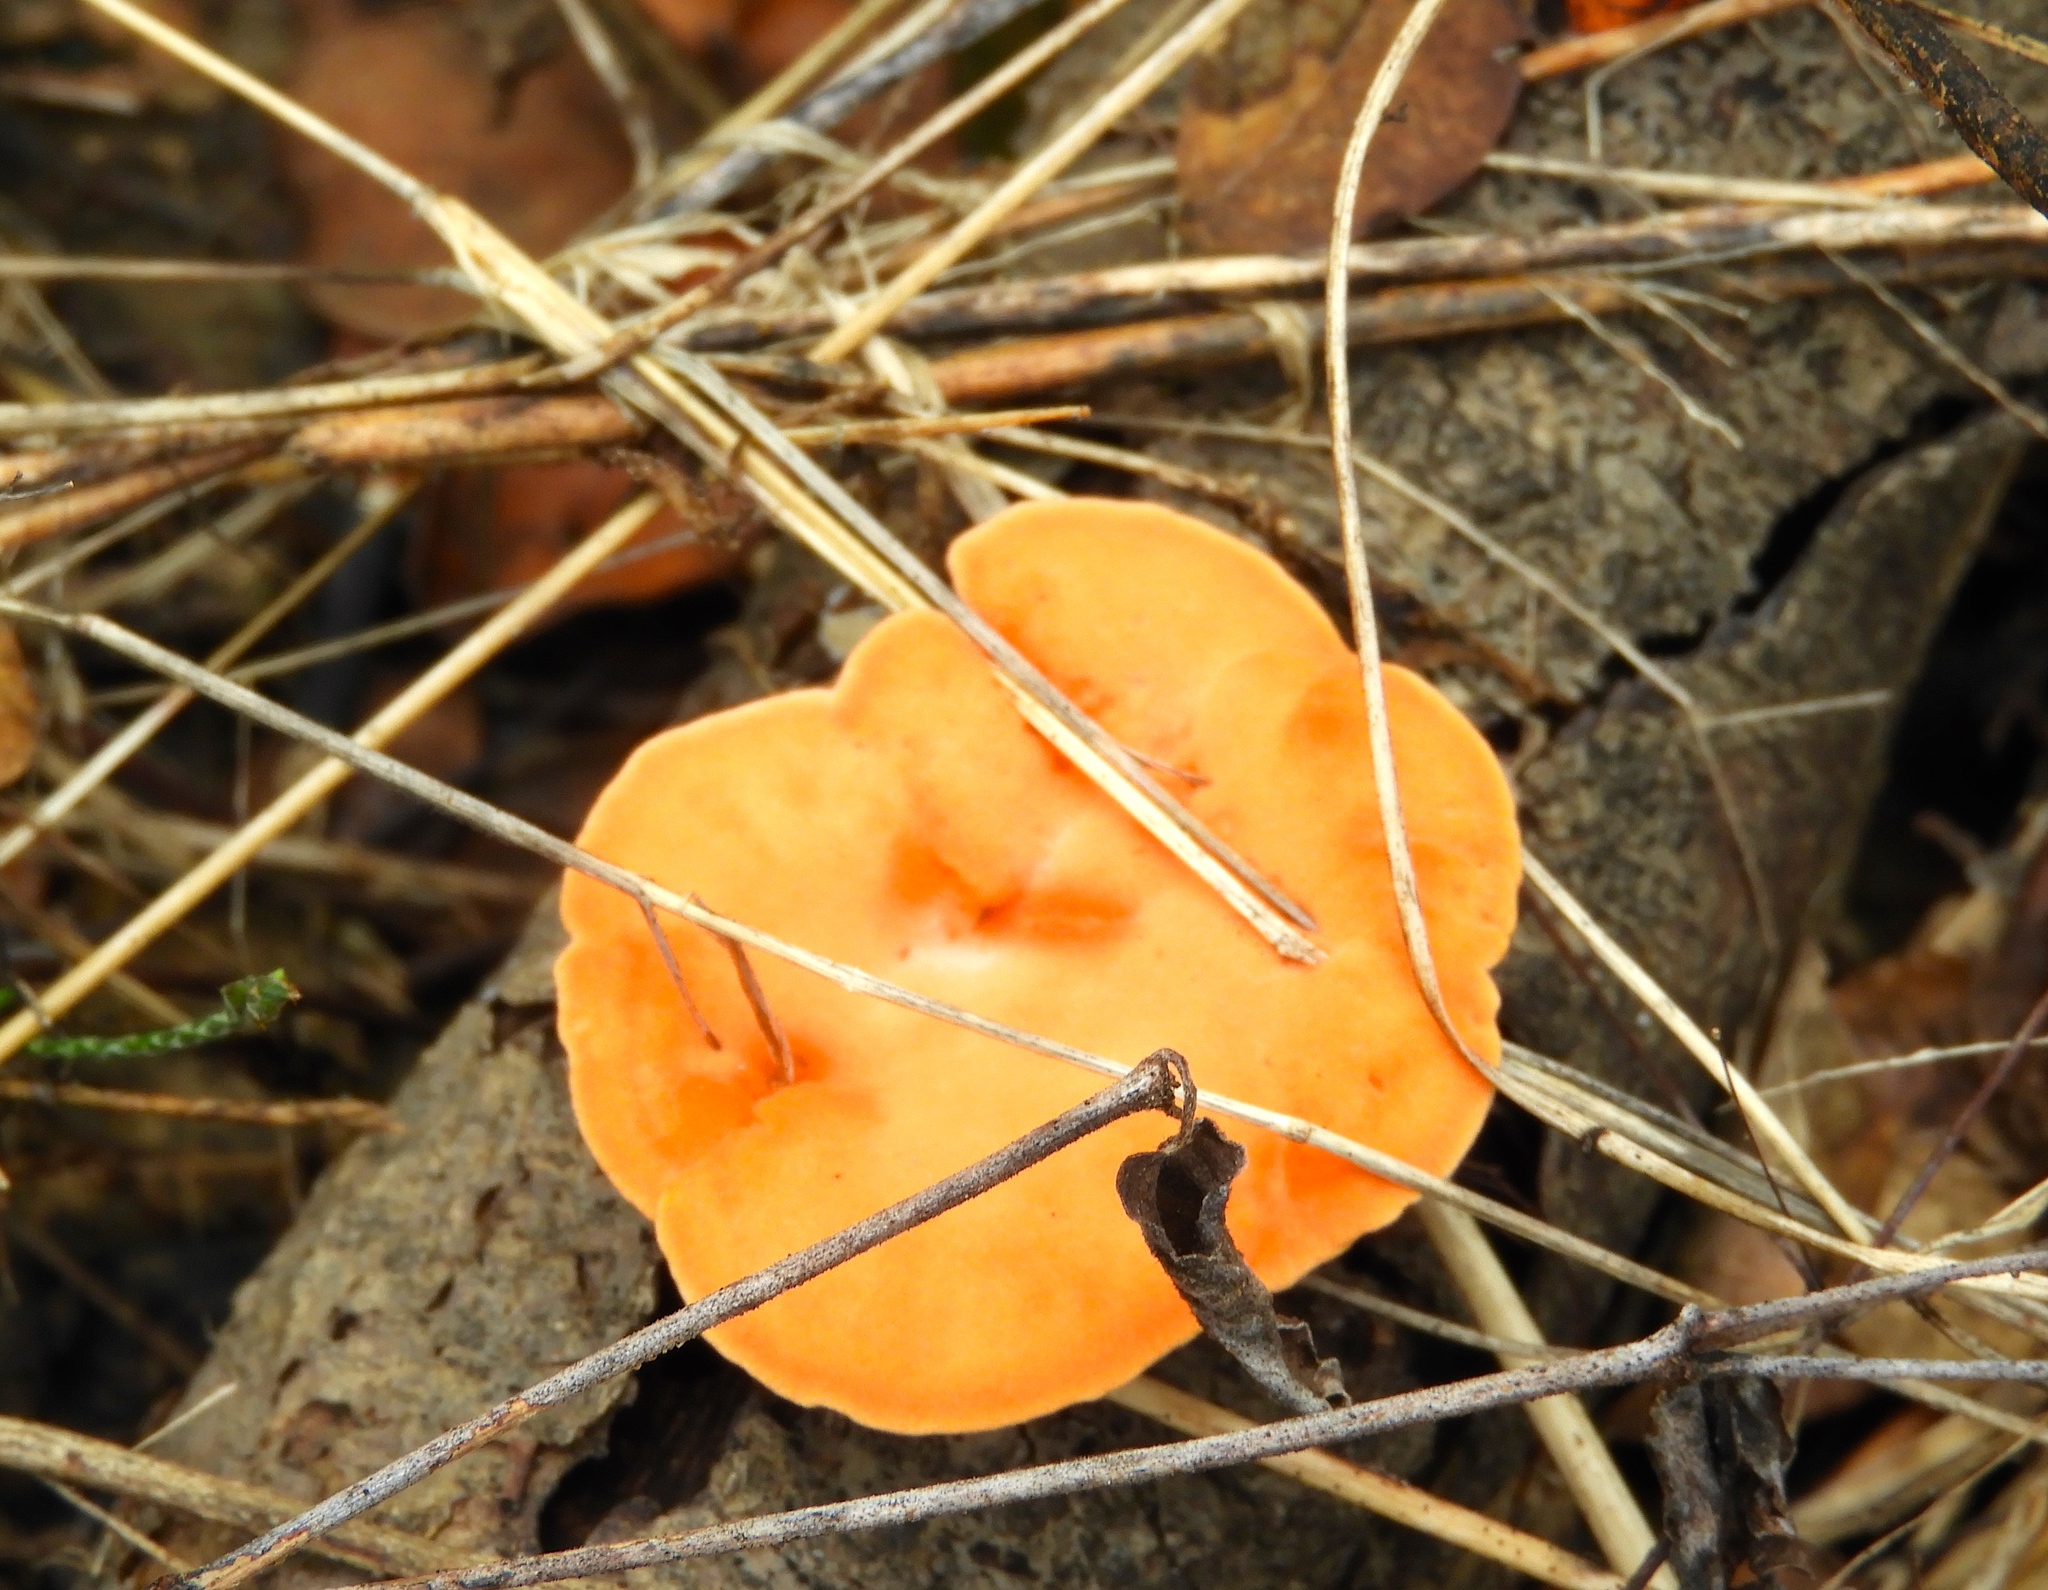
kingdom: Fungi
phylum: Basidiomycota
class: Agaricomycetes
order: Polyporales
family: Polyporaceae
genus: Trametes
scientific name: Trametes
